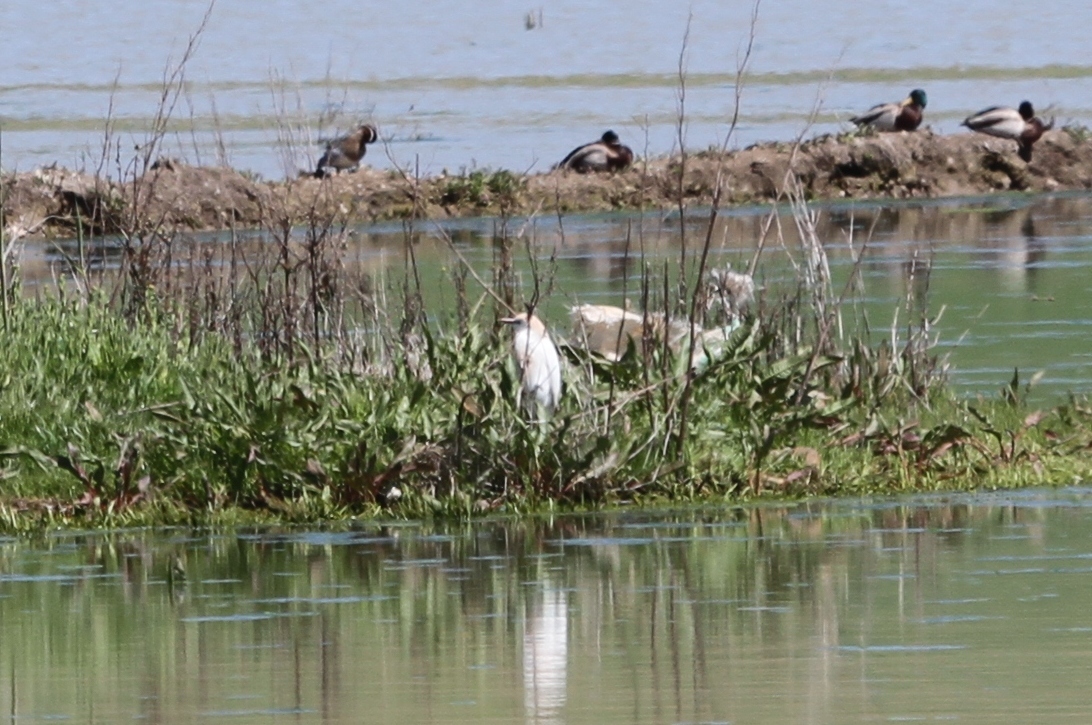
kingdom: Animalia
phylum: Chordata
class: Aves
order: Pelecaniformes
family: Ardeidae
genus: Egretta
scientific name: Egretta garzetta
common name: Little egret
